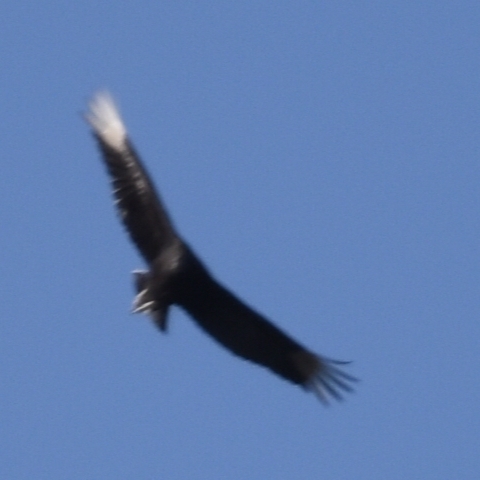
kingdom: Animalia
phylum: Chordata
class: Aves
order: Accipitriformes
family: Cathartidae
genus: Coragyps
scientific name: Coragyps atratus
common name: Black vulture
